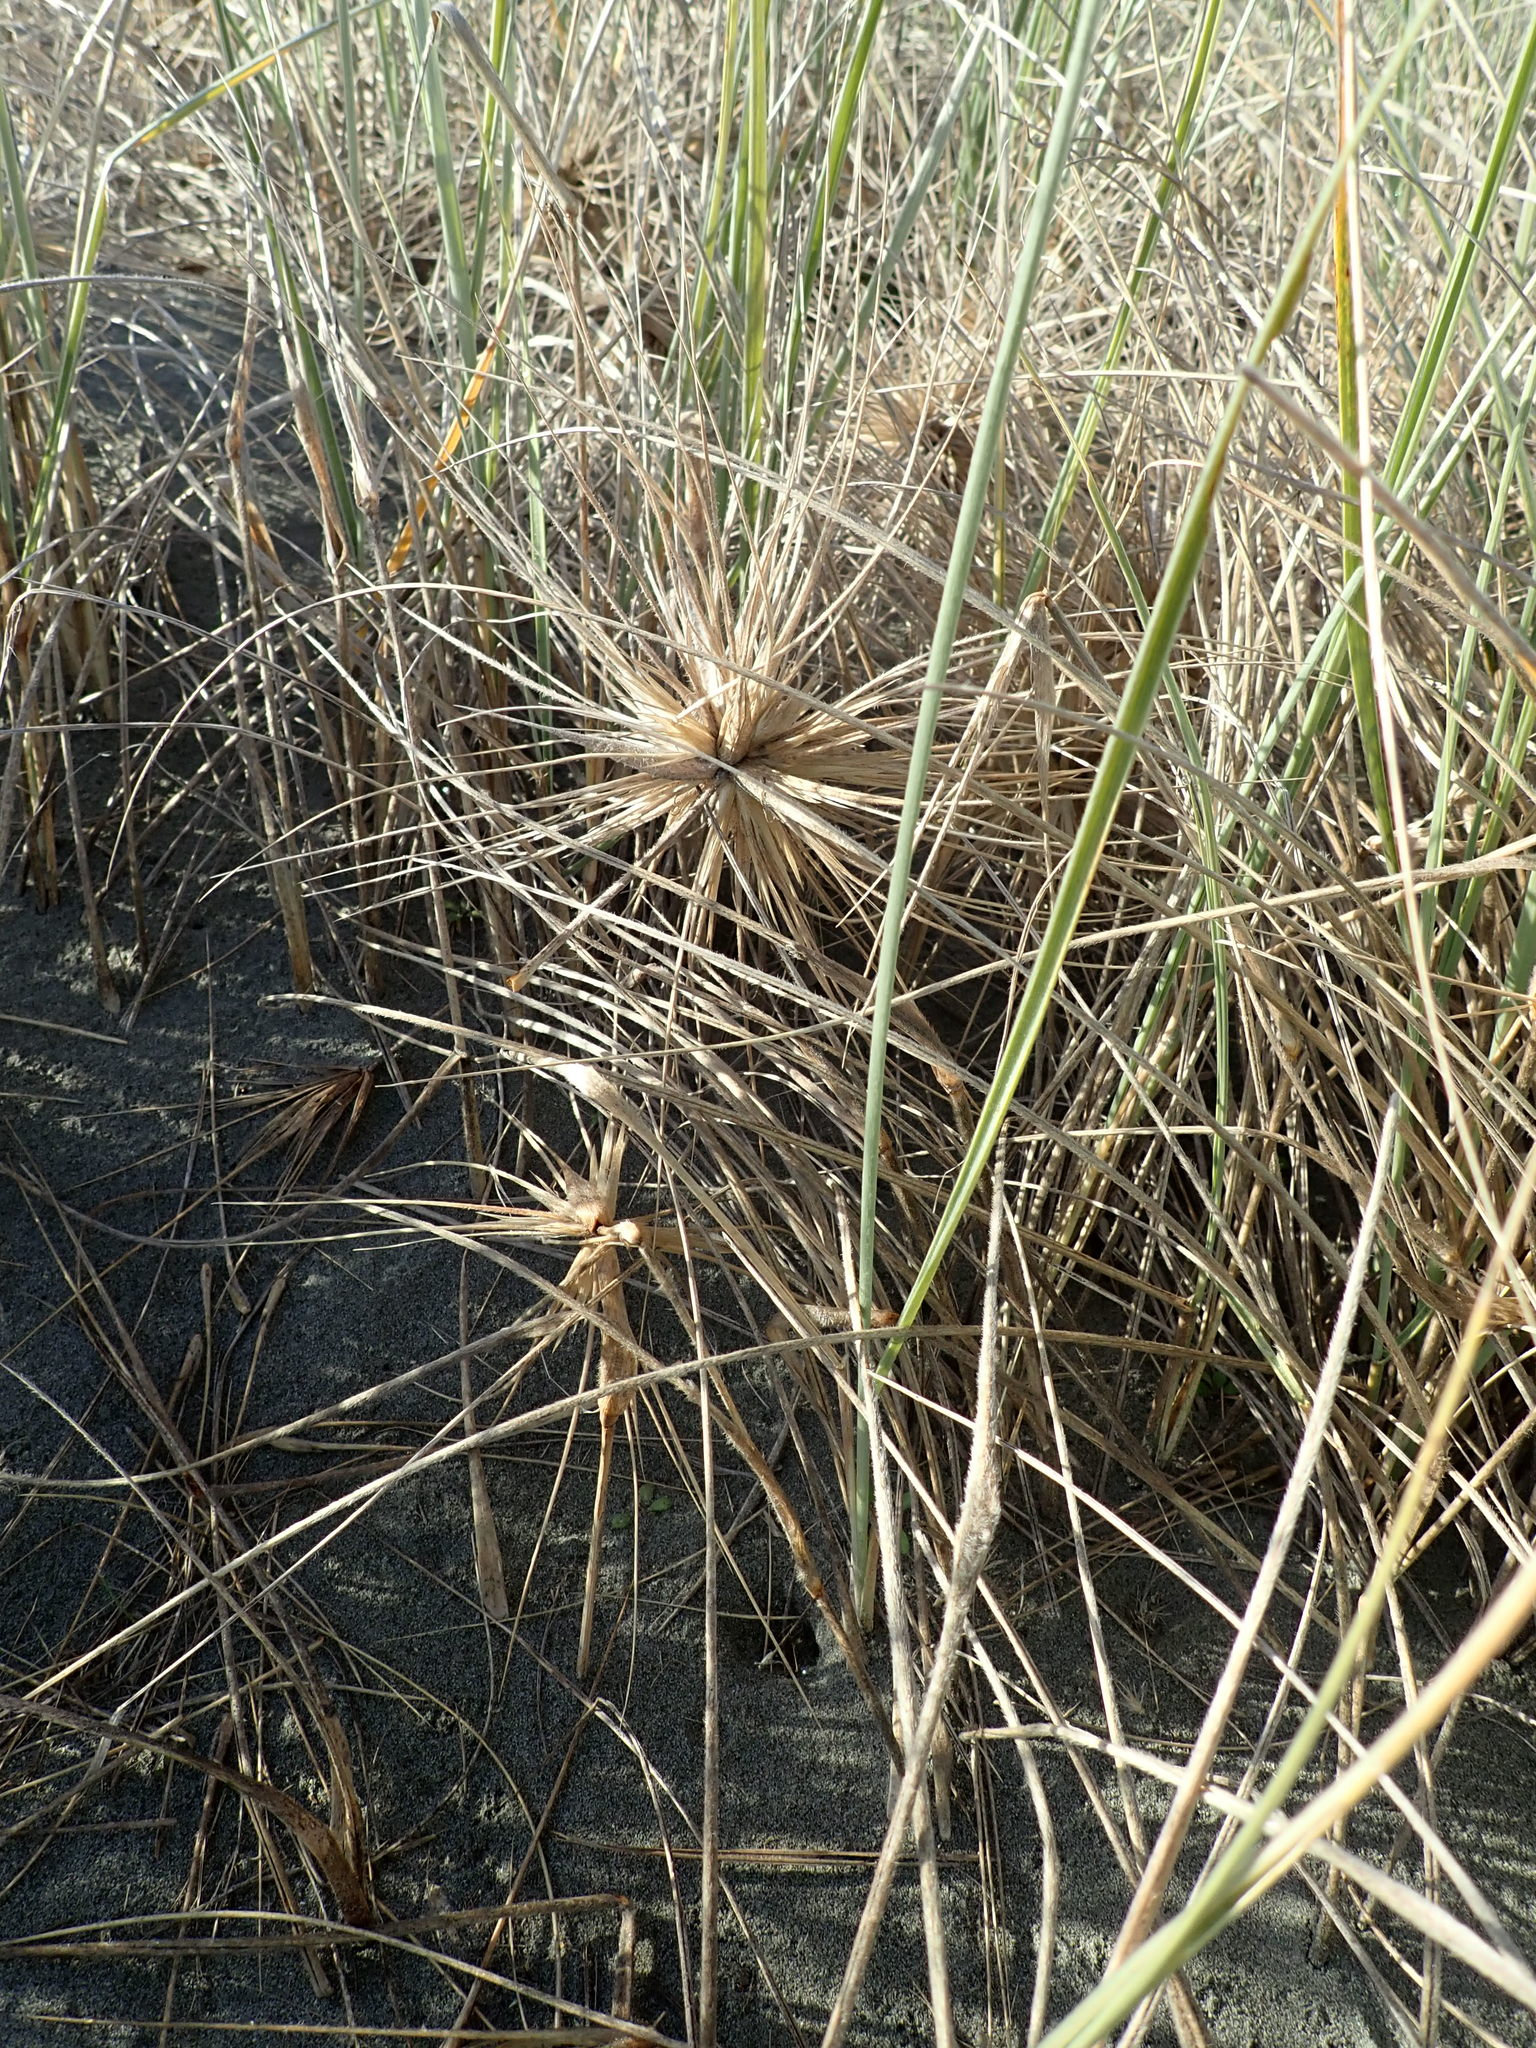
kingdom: Plantae
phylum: Tracheophyta
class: Liliopsida
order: Poales
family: Poaceae
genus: Spinifex
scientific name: Spinifex sericeus
